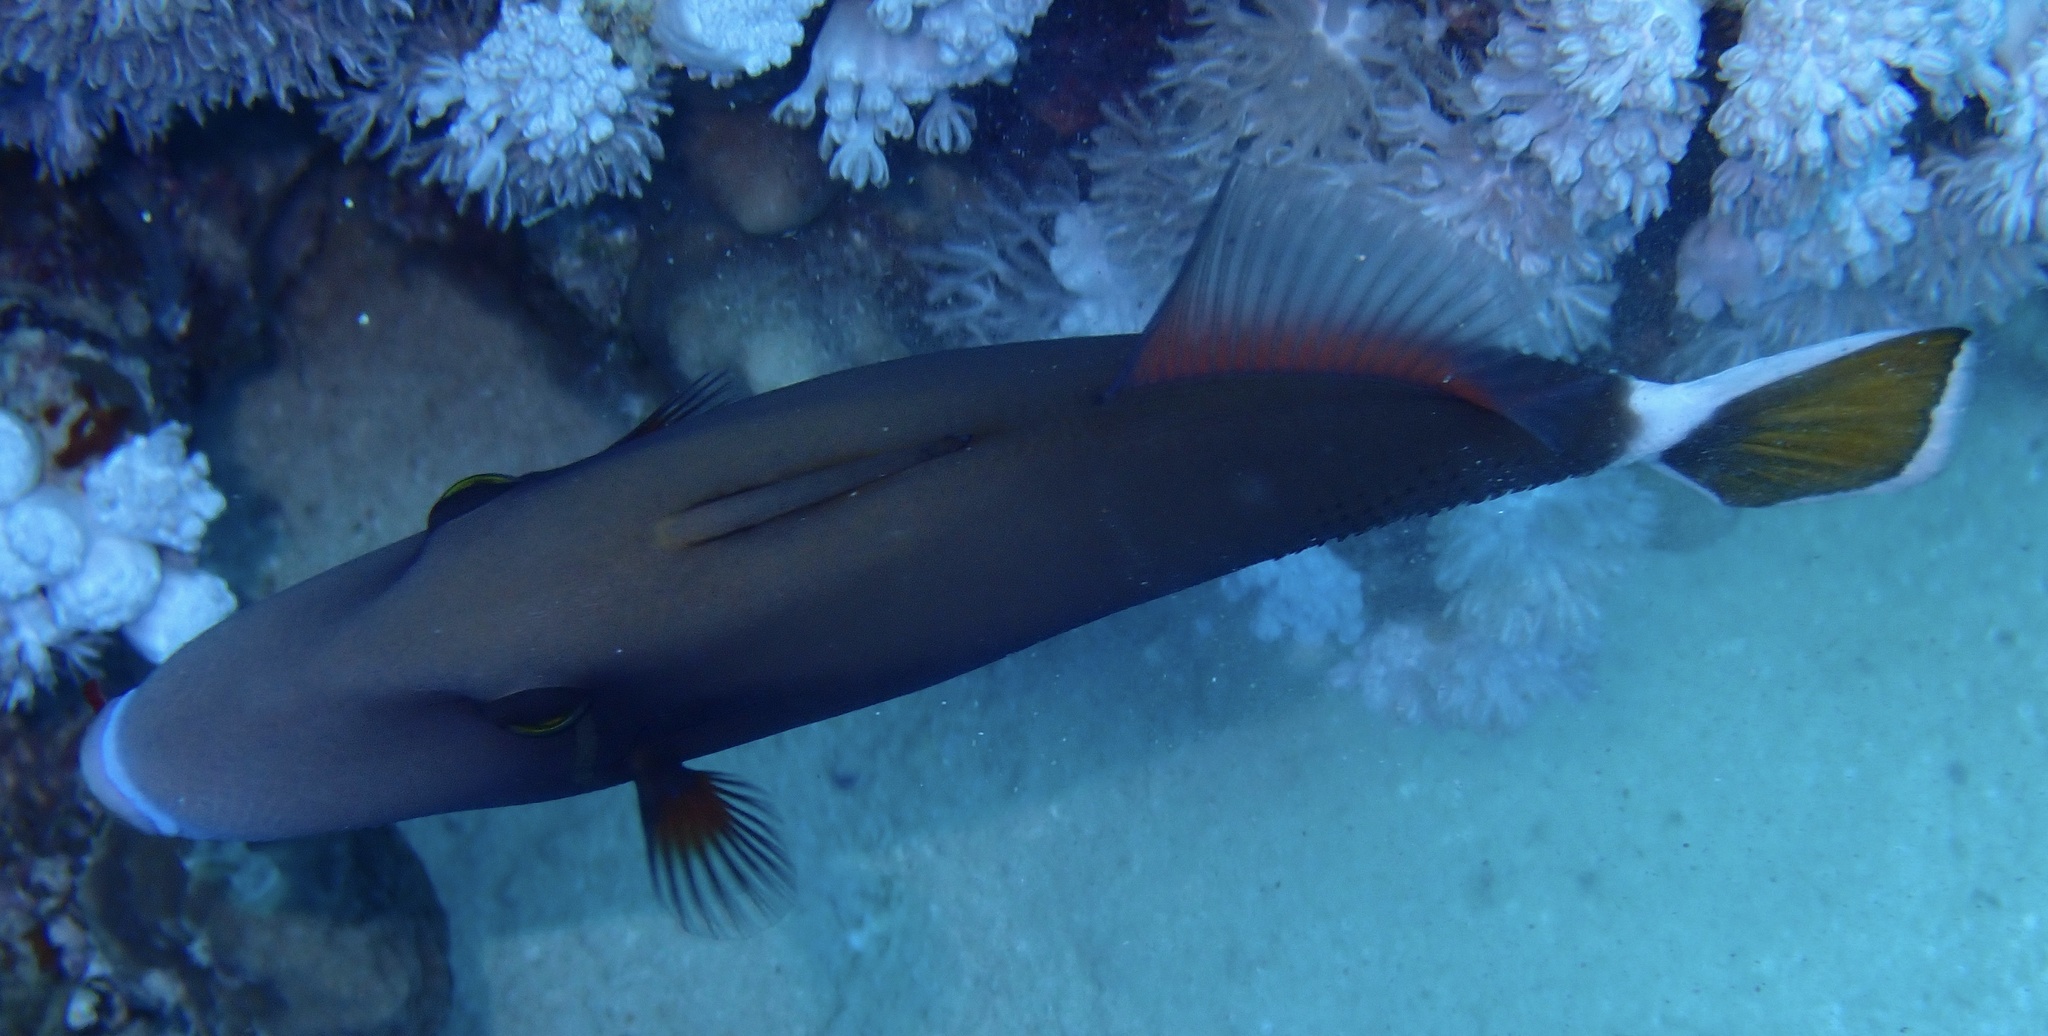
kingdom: Animalia
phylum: Chordata
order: Tetraodontiformes
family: Balistidae
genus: Sufflamen
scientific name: Sufflamen albicaudatum
